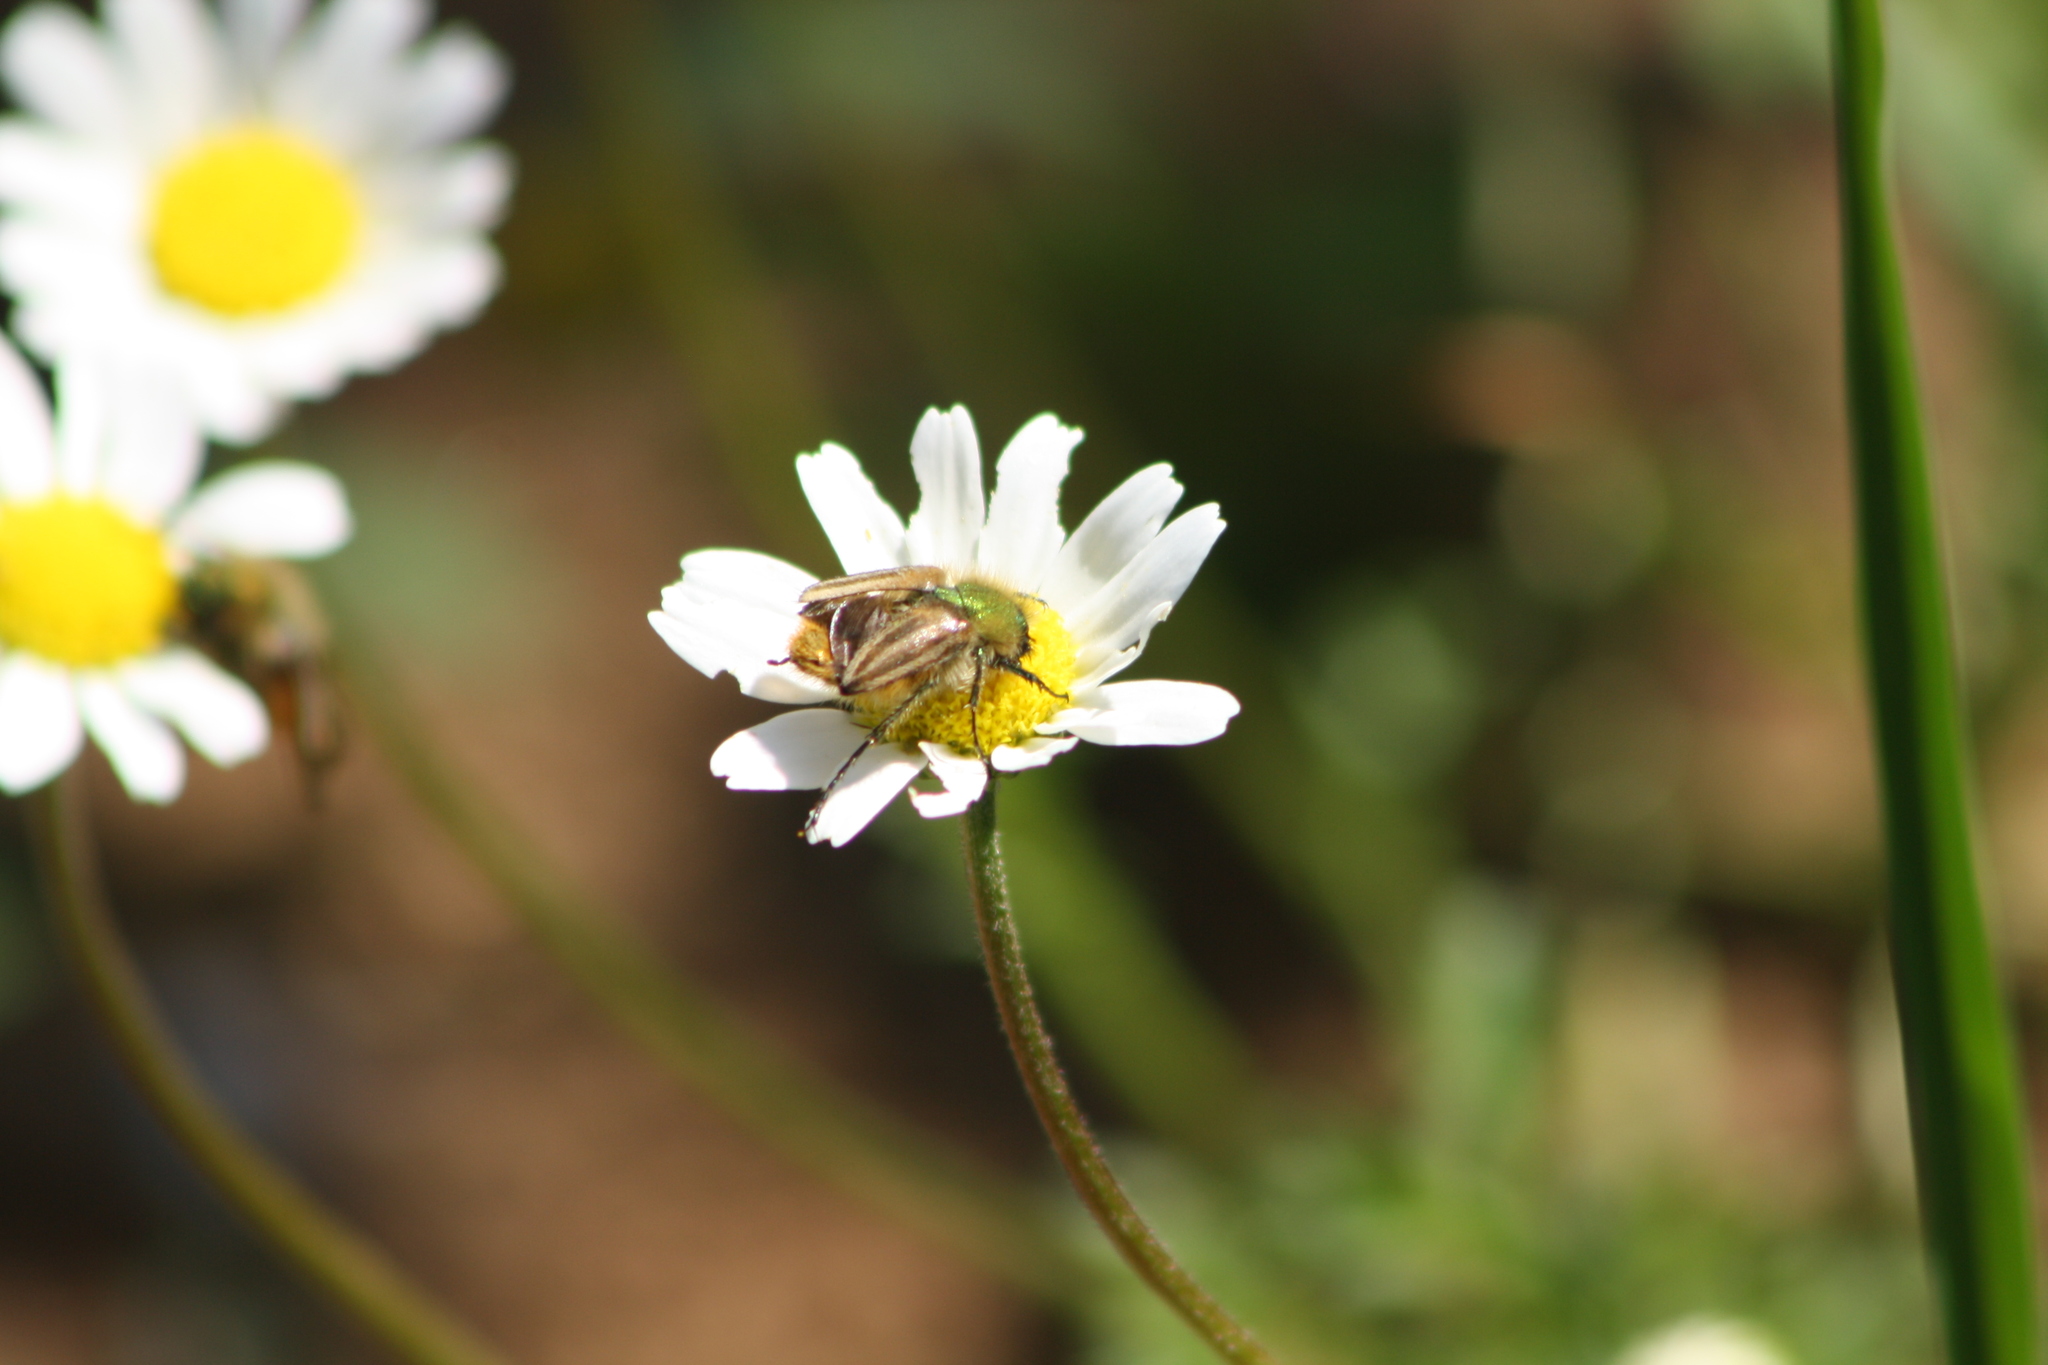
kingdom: Animalia
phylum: Arthropoda
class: Insecta
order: Coleoptera
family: Glaphyridae
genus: Eulasia
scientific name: Eulasia pareyssei
